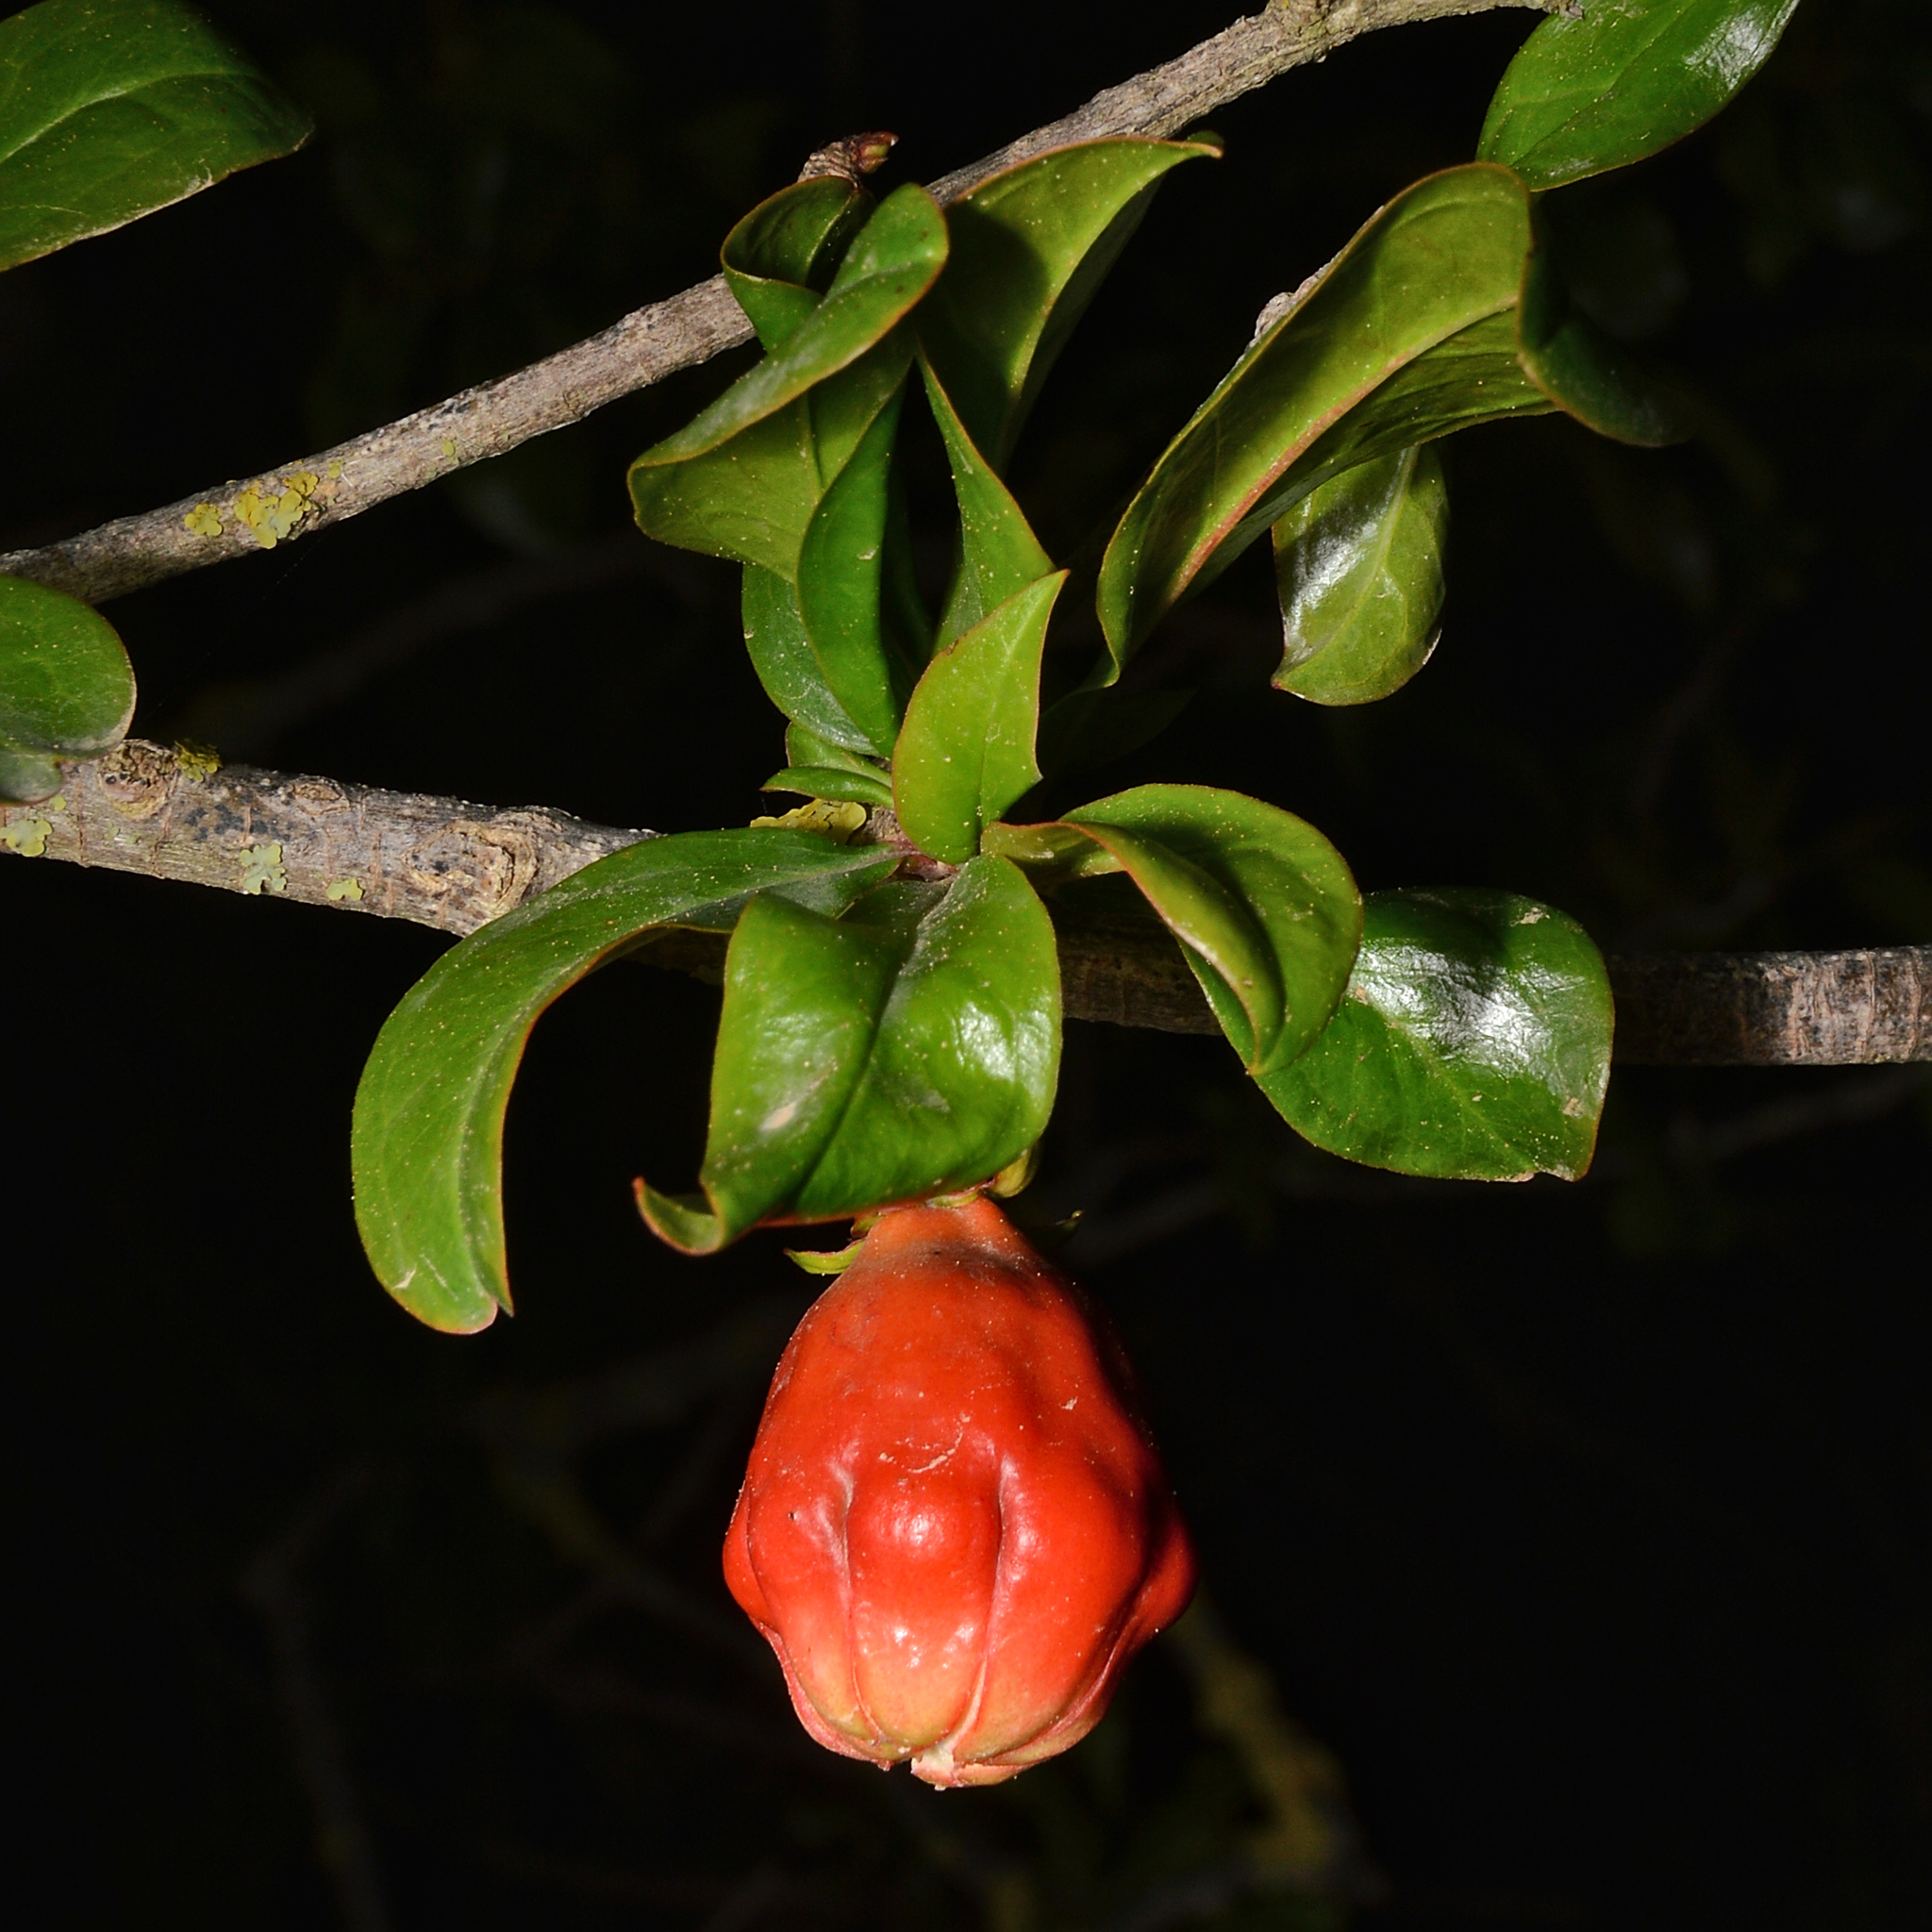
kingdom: Plantae
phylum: Tracheophyta
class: Magnoliopsida
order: Myrtales
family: Lythraceae
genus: Punica
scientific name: Punica granatum
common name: Pomegranate
